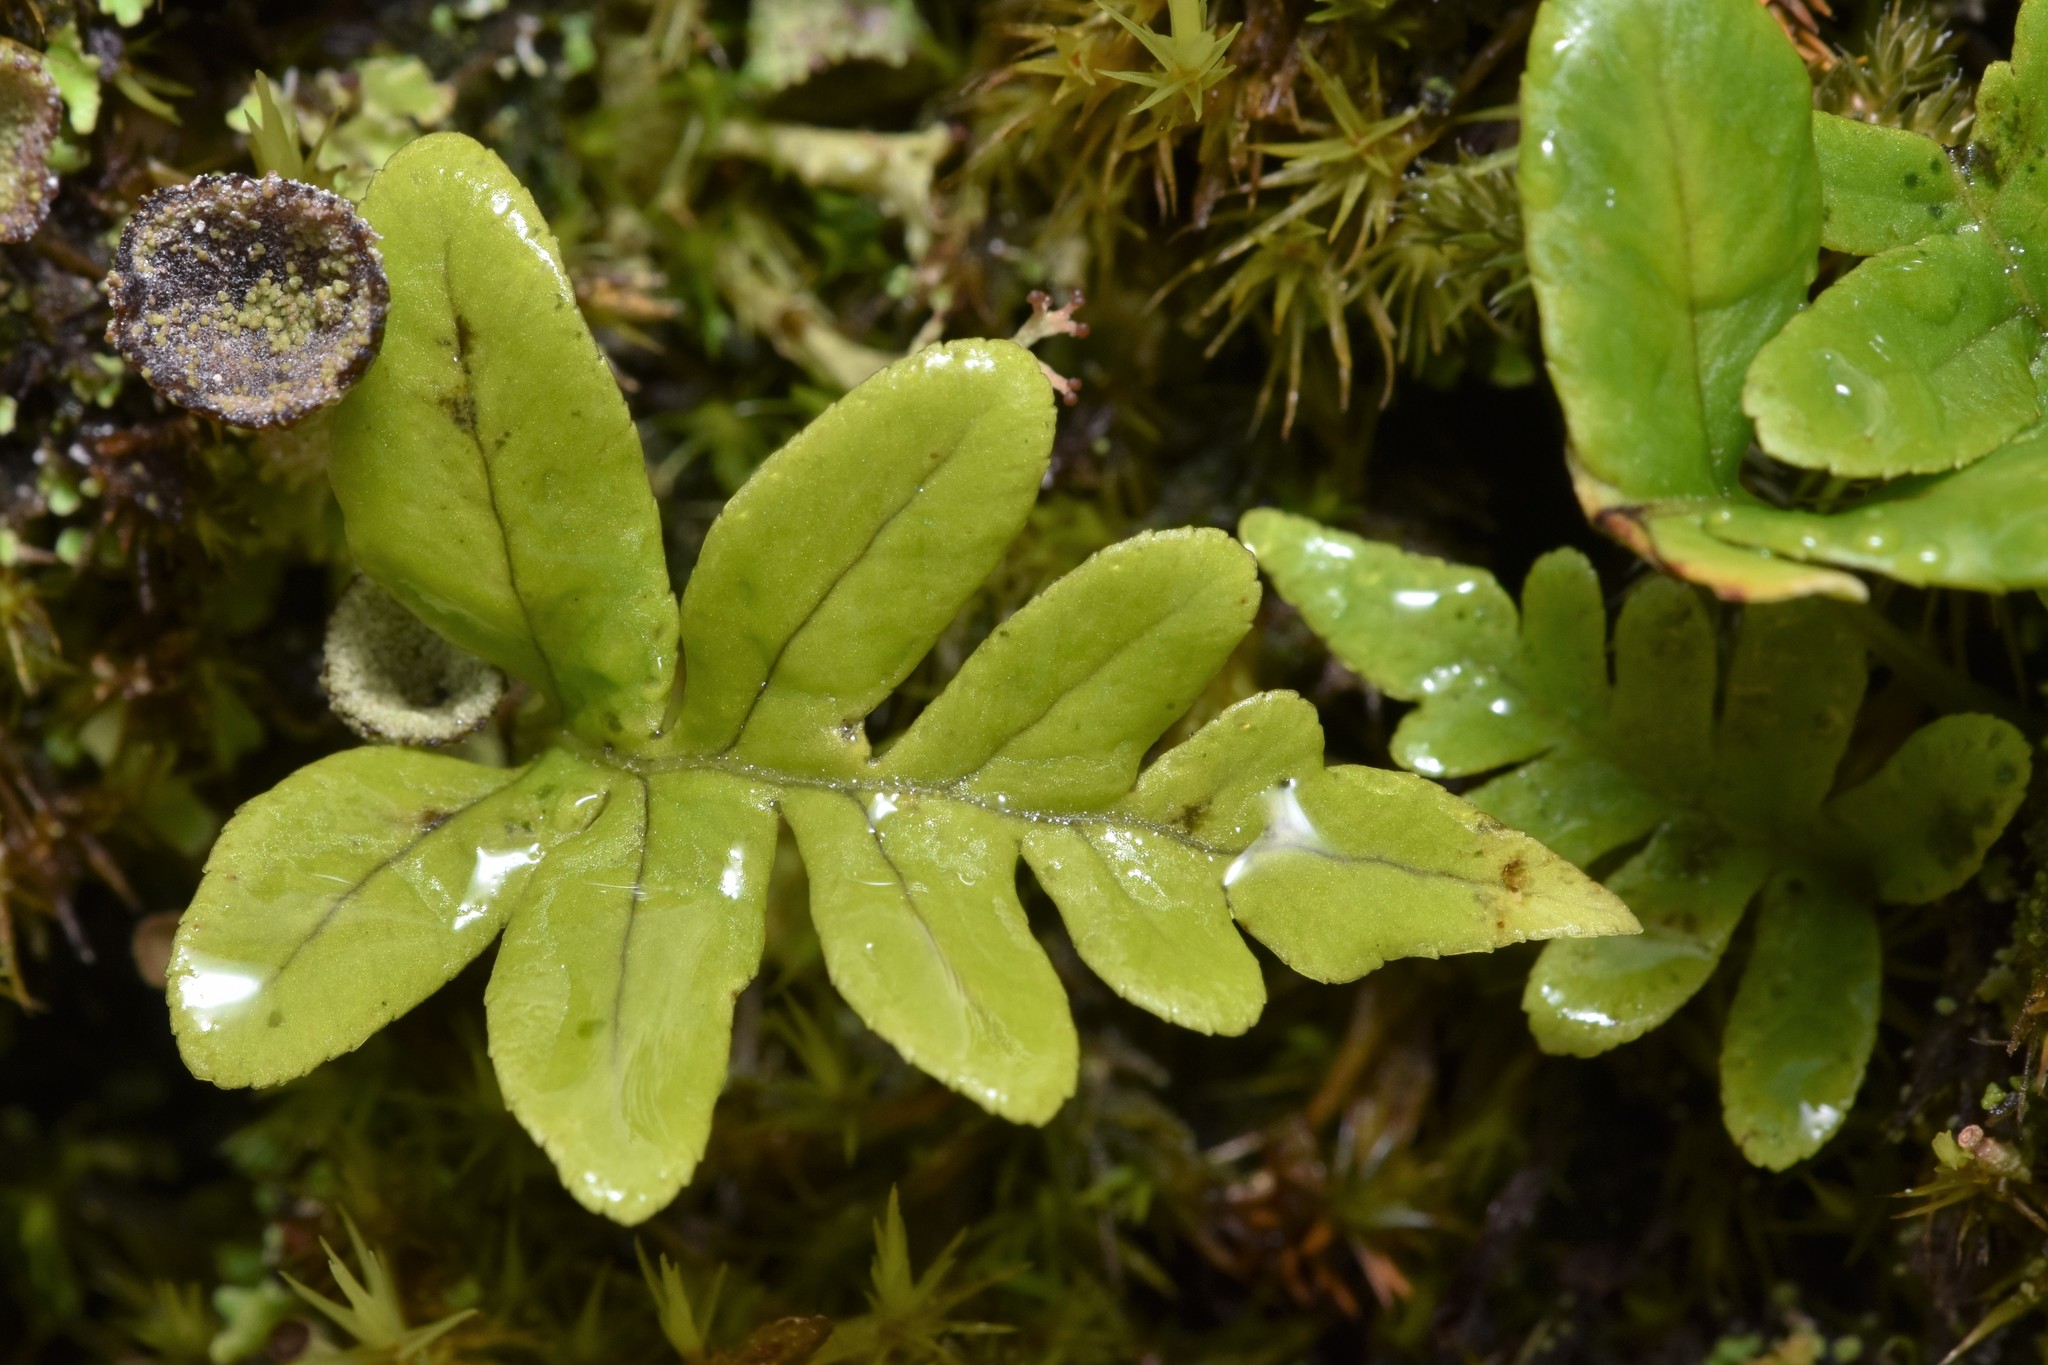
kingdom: Plantae
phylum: Tracheophyta
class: Polypodiopsida
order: Polypodiales
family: Polypodiaceae
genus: Polypodium
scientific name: Polypodium glycyrrhiza
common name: Licorice fern
